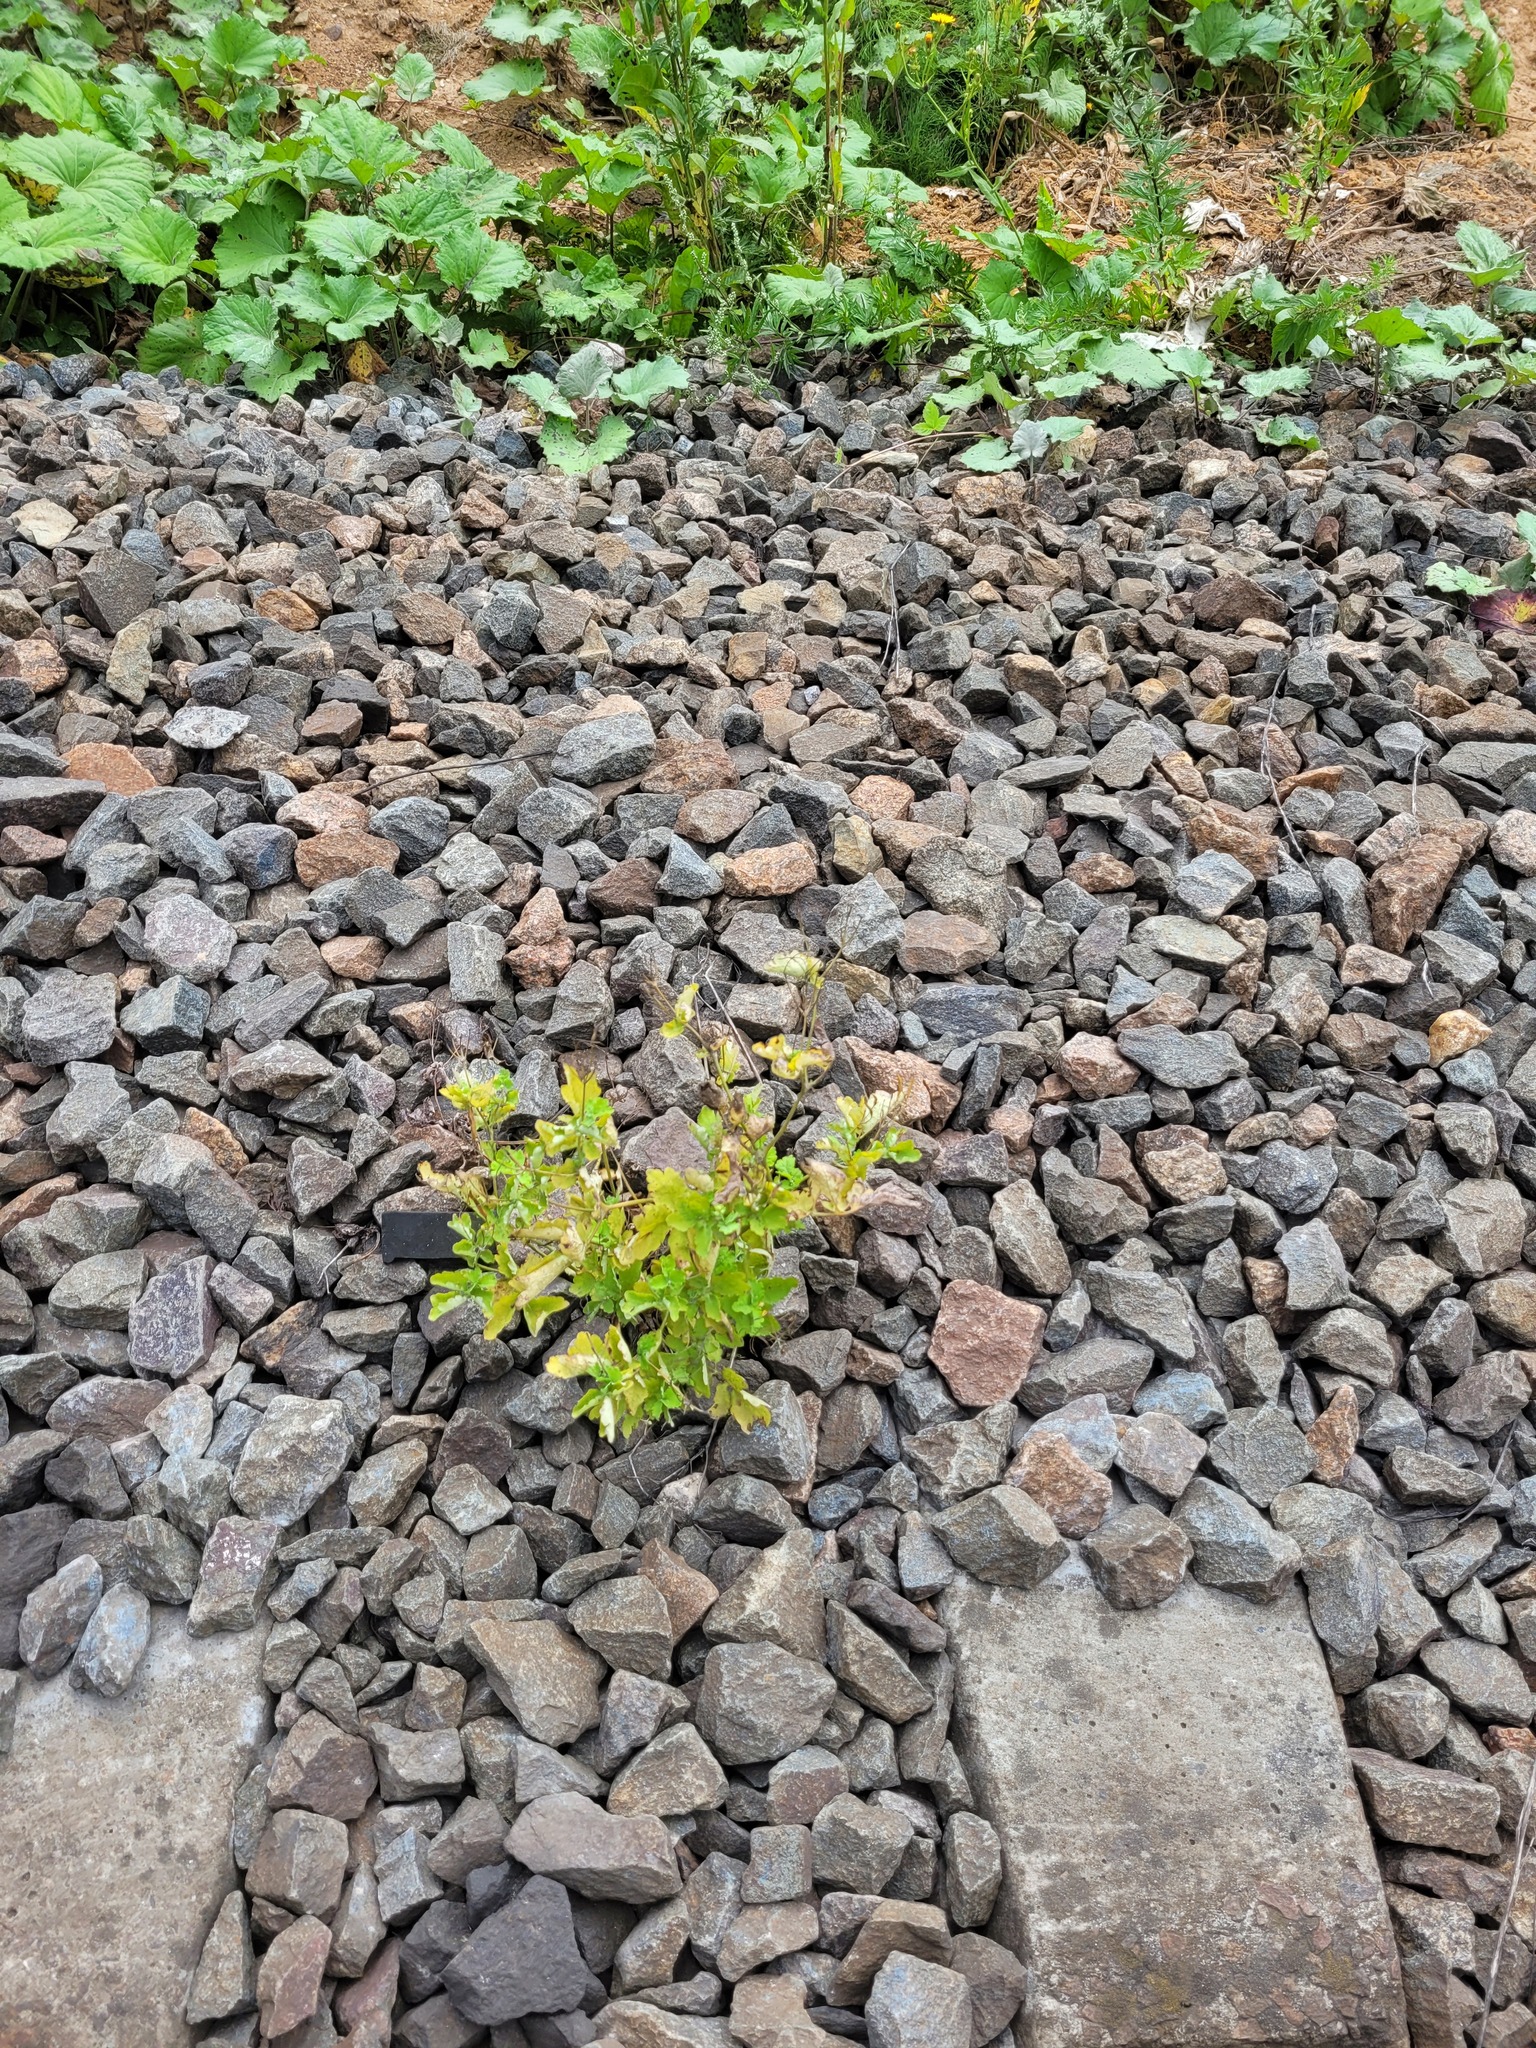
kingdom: Plantae
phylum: Tracheophyta
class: Magnoliopsida
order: Ranunculales
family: Papaveraceae
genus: Chelidonium
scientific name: Chelidonium majus
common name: Greater celandine
